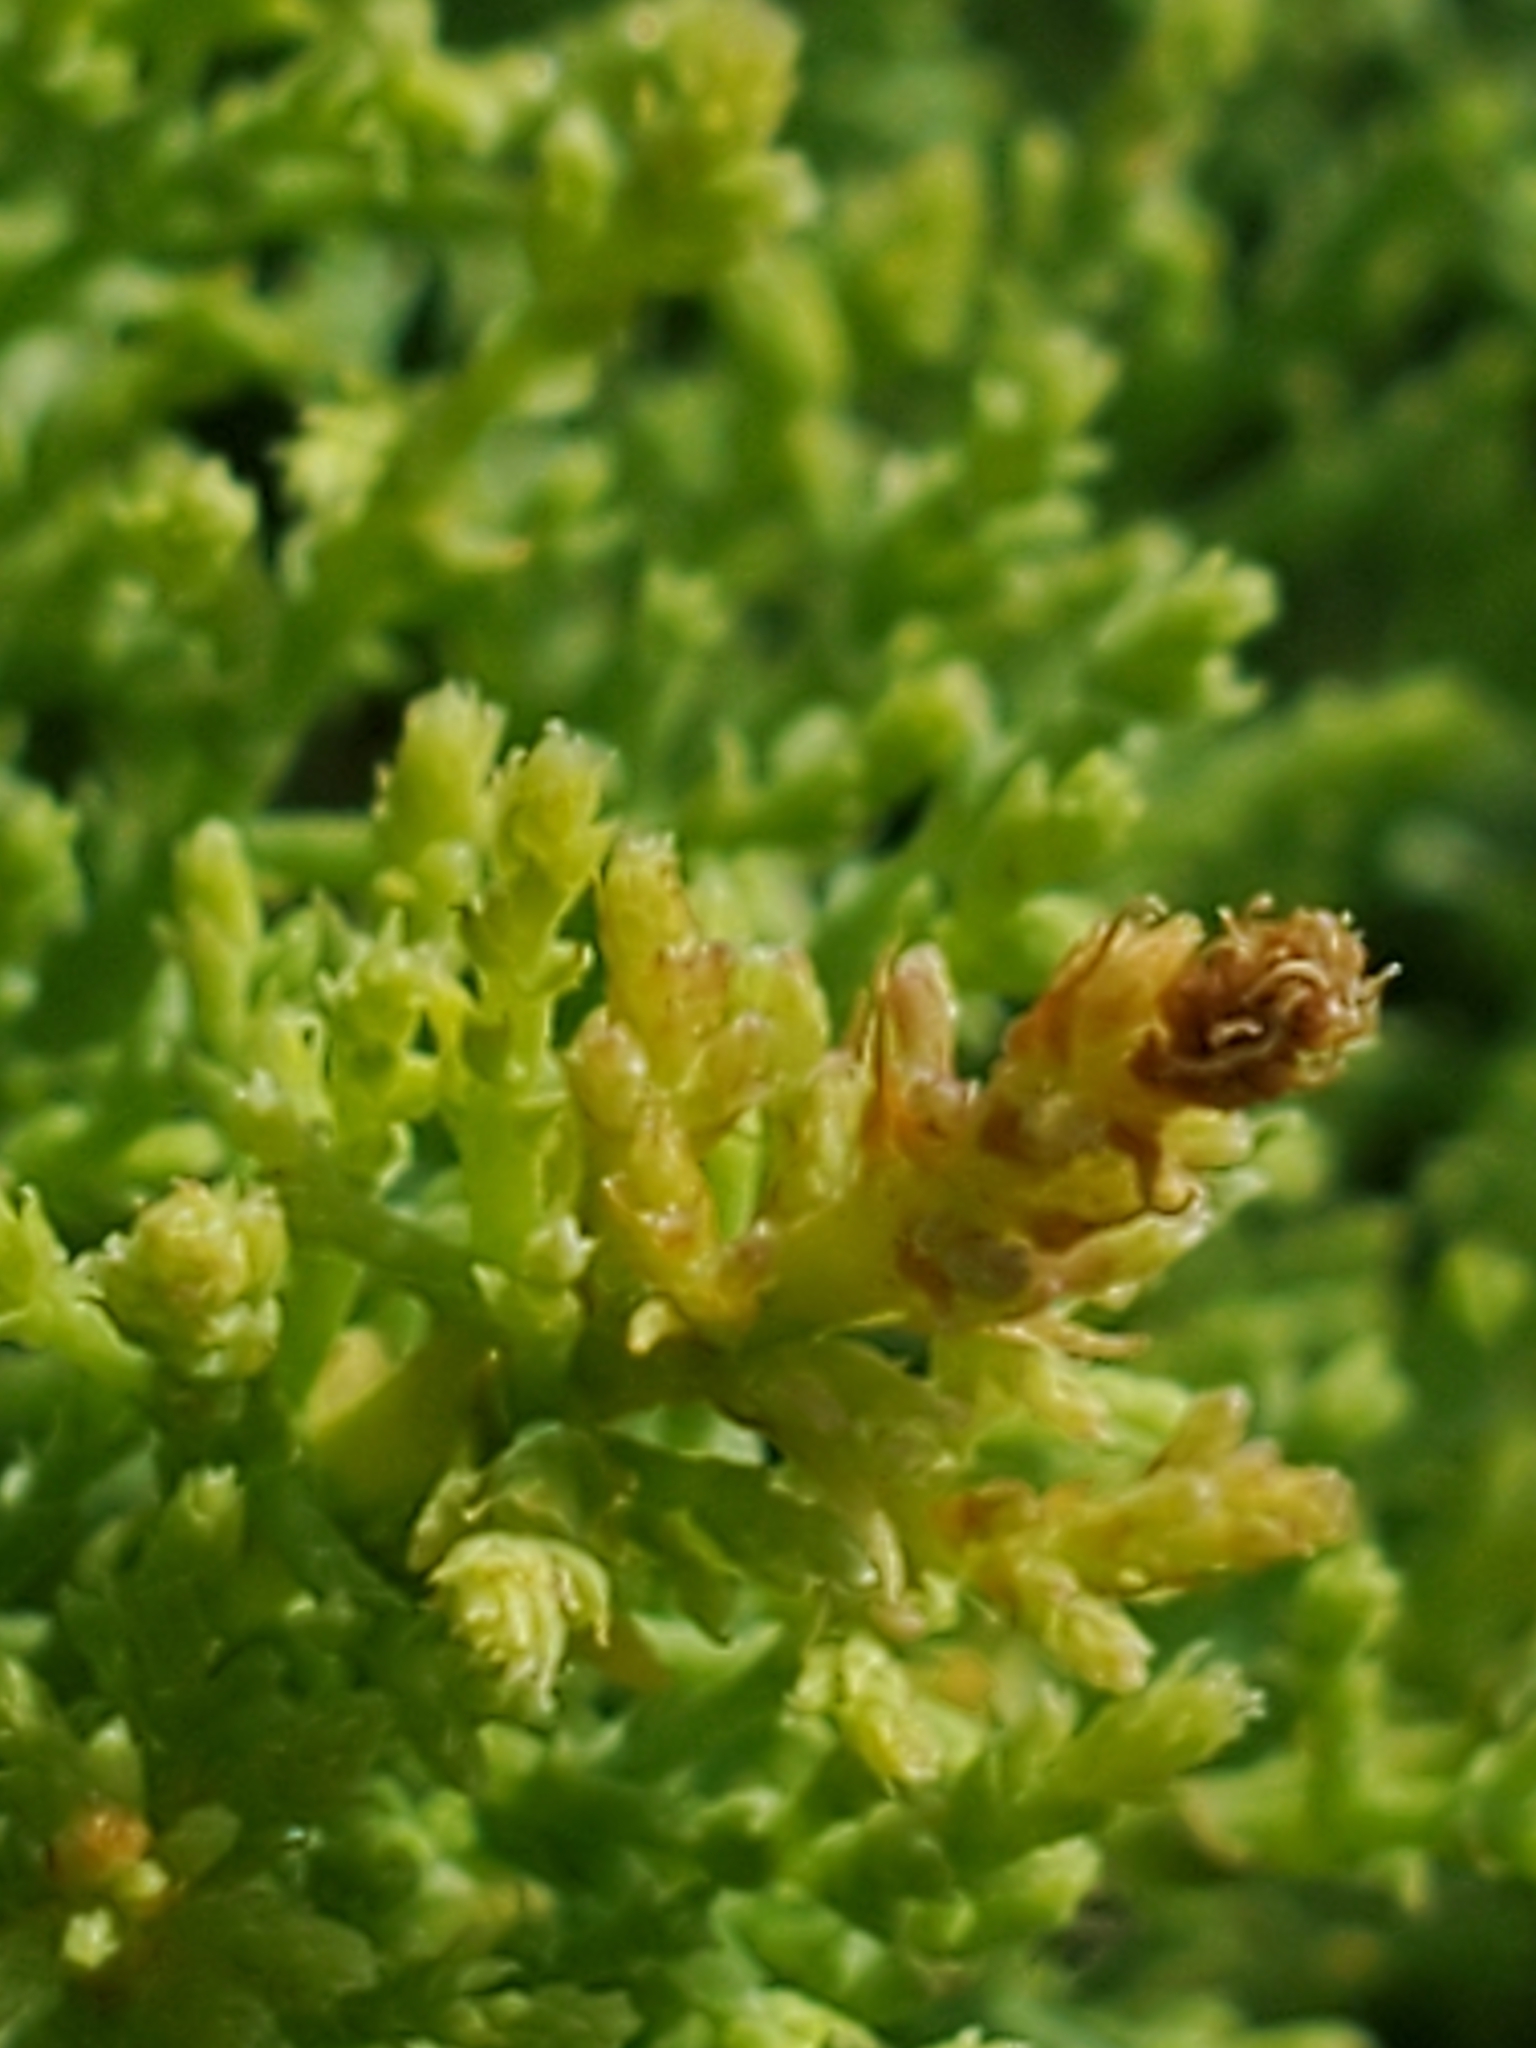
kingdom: Plantae
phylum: Tracheophyta
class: Magnoliopsida
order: Caryophyllales
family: Tamaricaceae
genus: Tamarix
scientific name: Tamarix ramosissima
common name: Pink tamarisk
